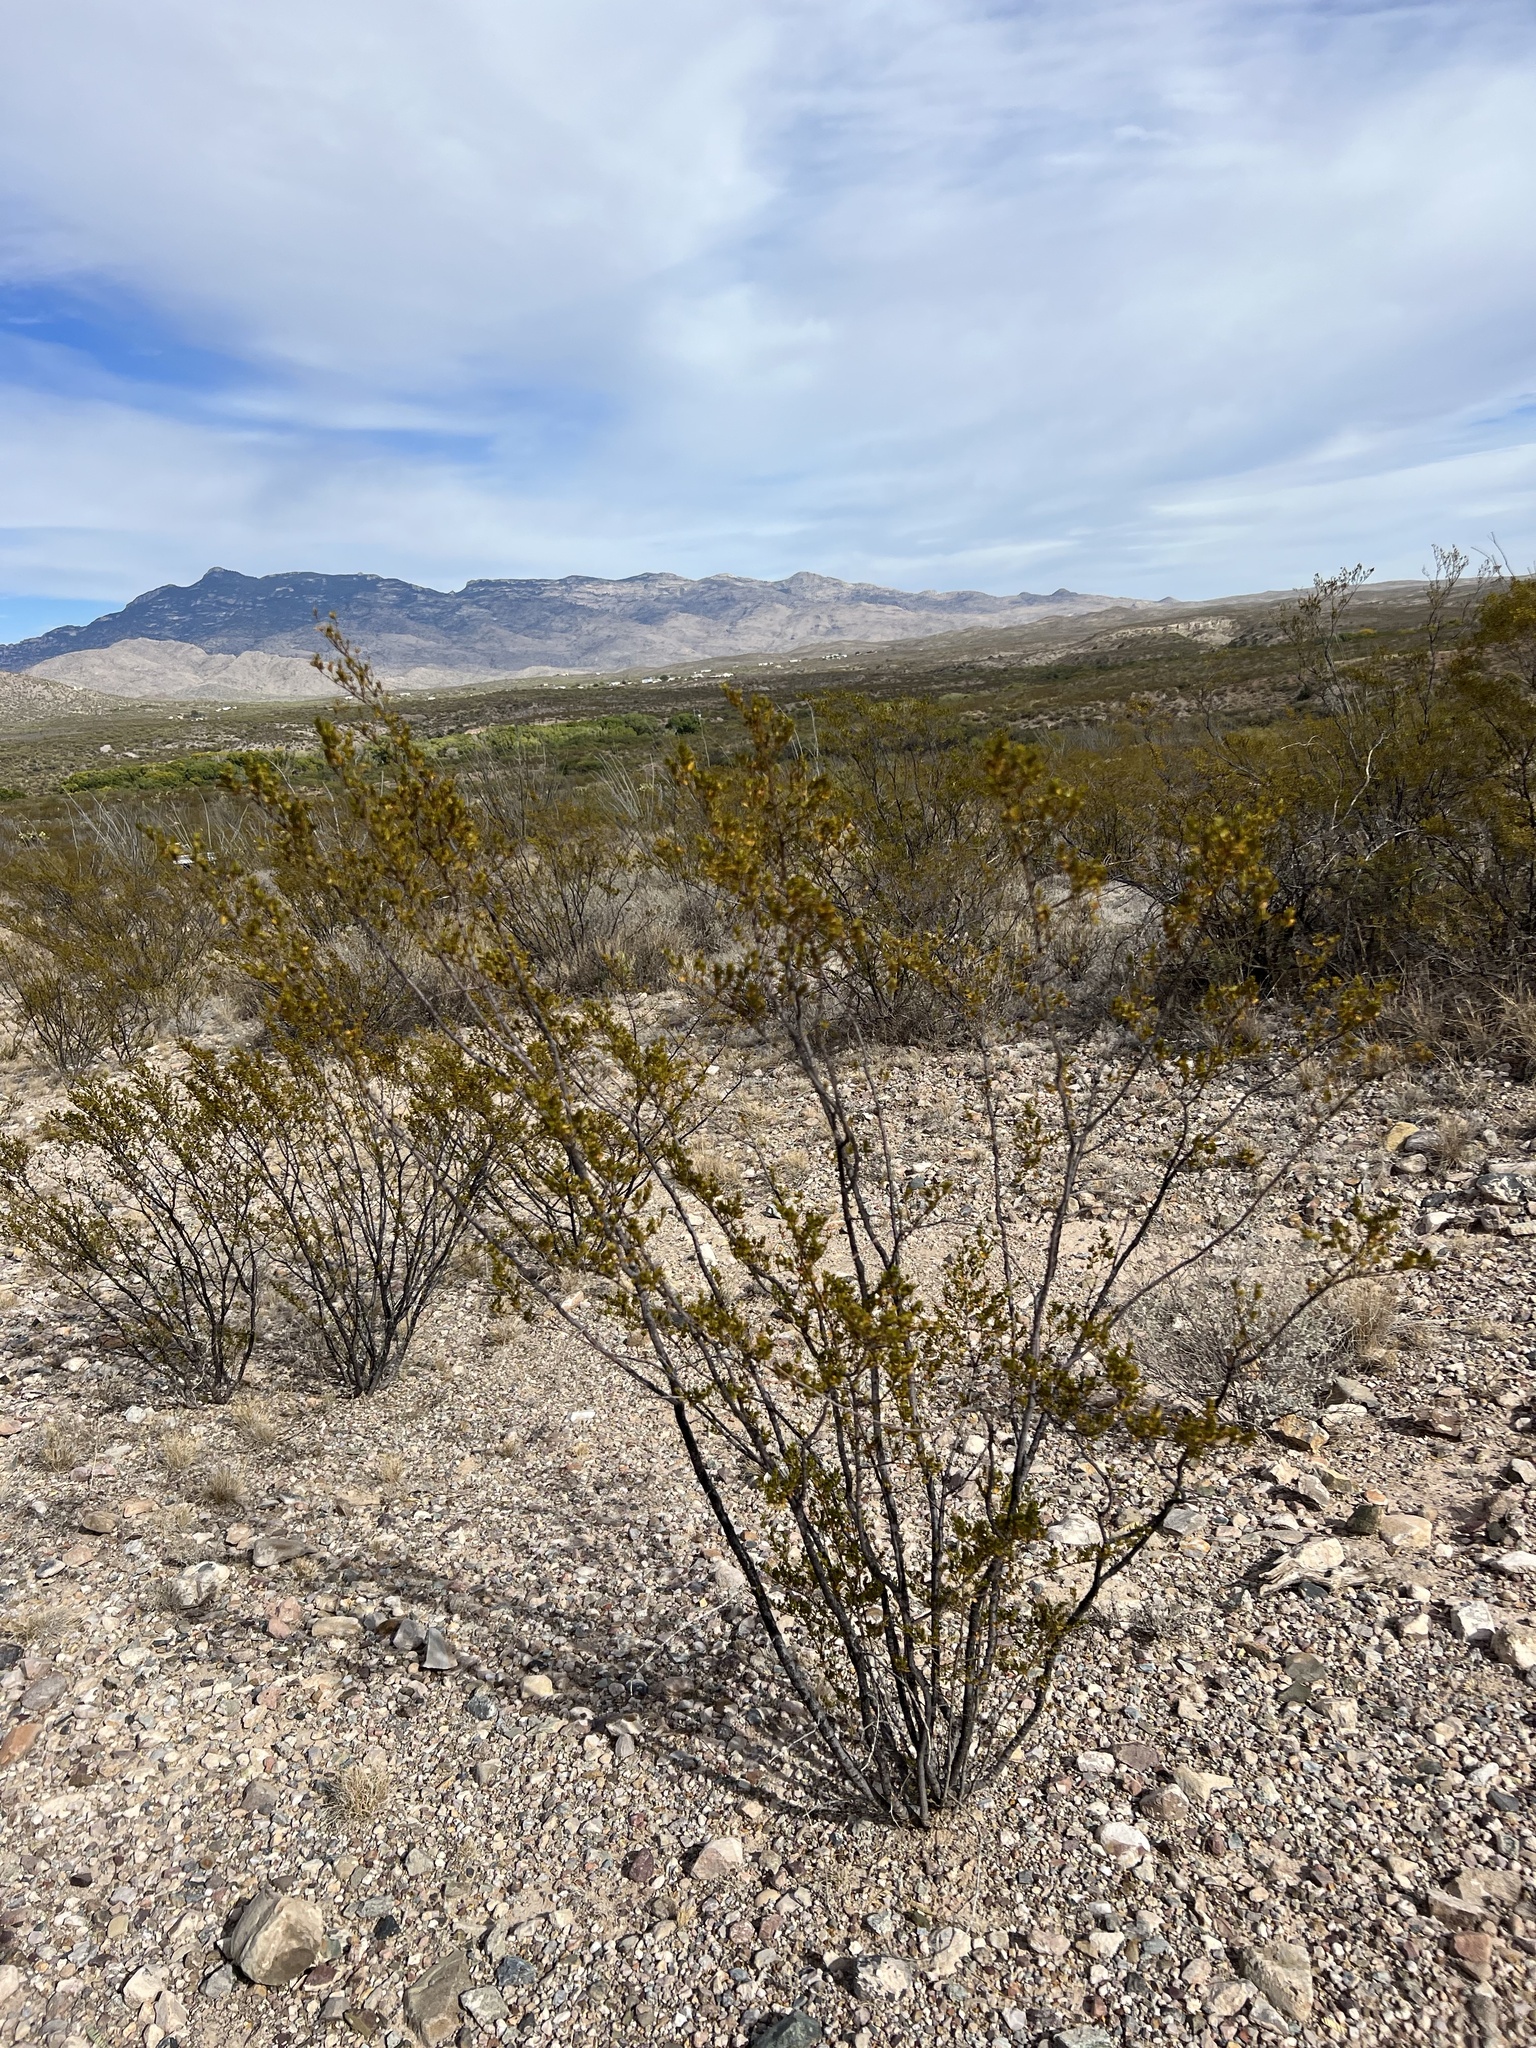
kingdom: Plantae
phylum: Tracheophyta
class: Magnoliopsida
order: Zygophyllales
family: Zygophyllaceae
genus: Larrea
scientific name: Larrea tridentata
